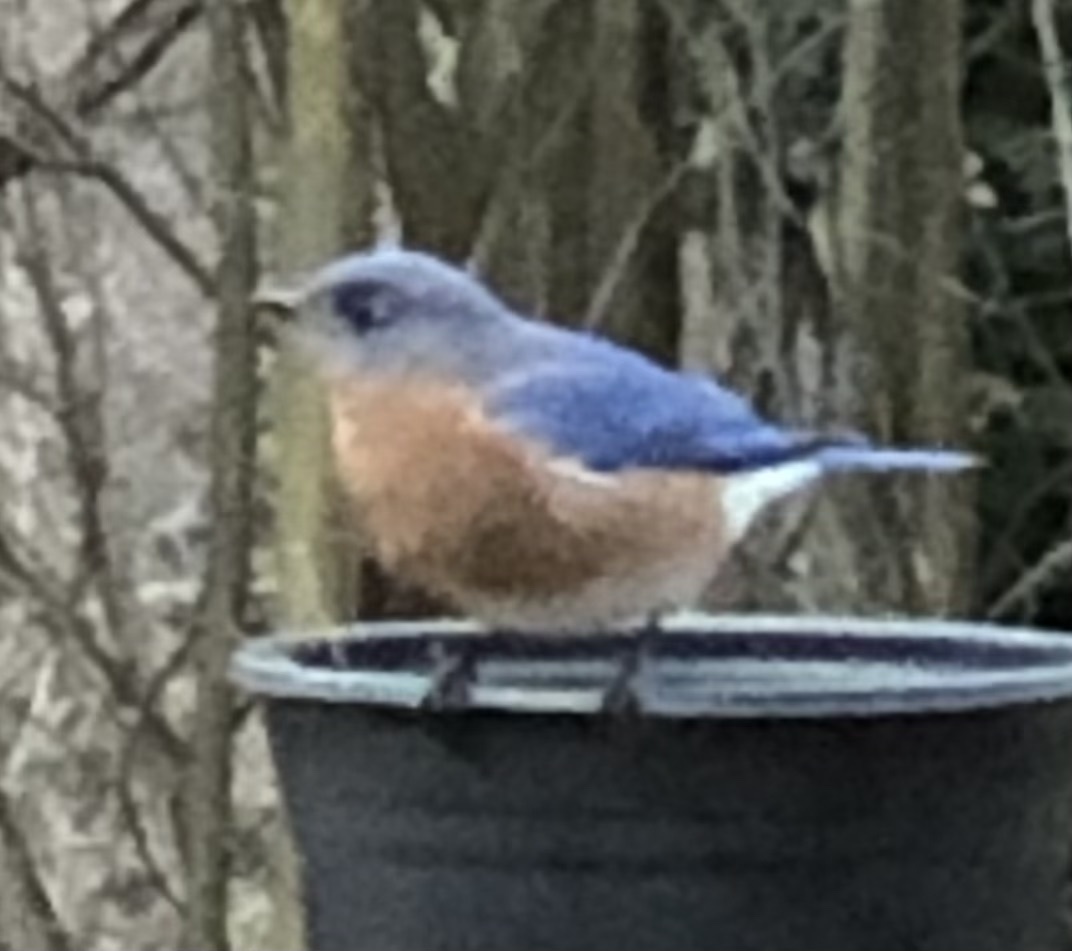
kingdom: Animalia
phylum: Chordata
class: Aves
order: Passeriformes
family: Turdidae
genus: Sialia
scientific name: Sialia sialis
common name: Eastern bluebird
